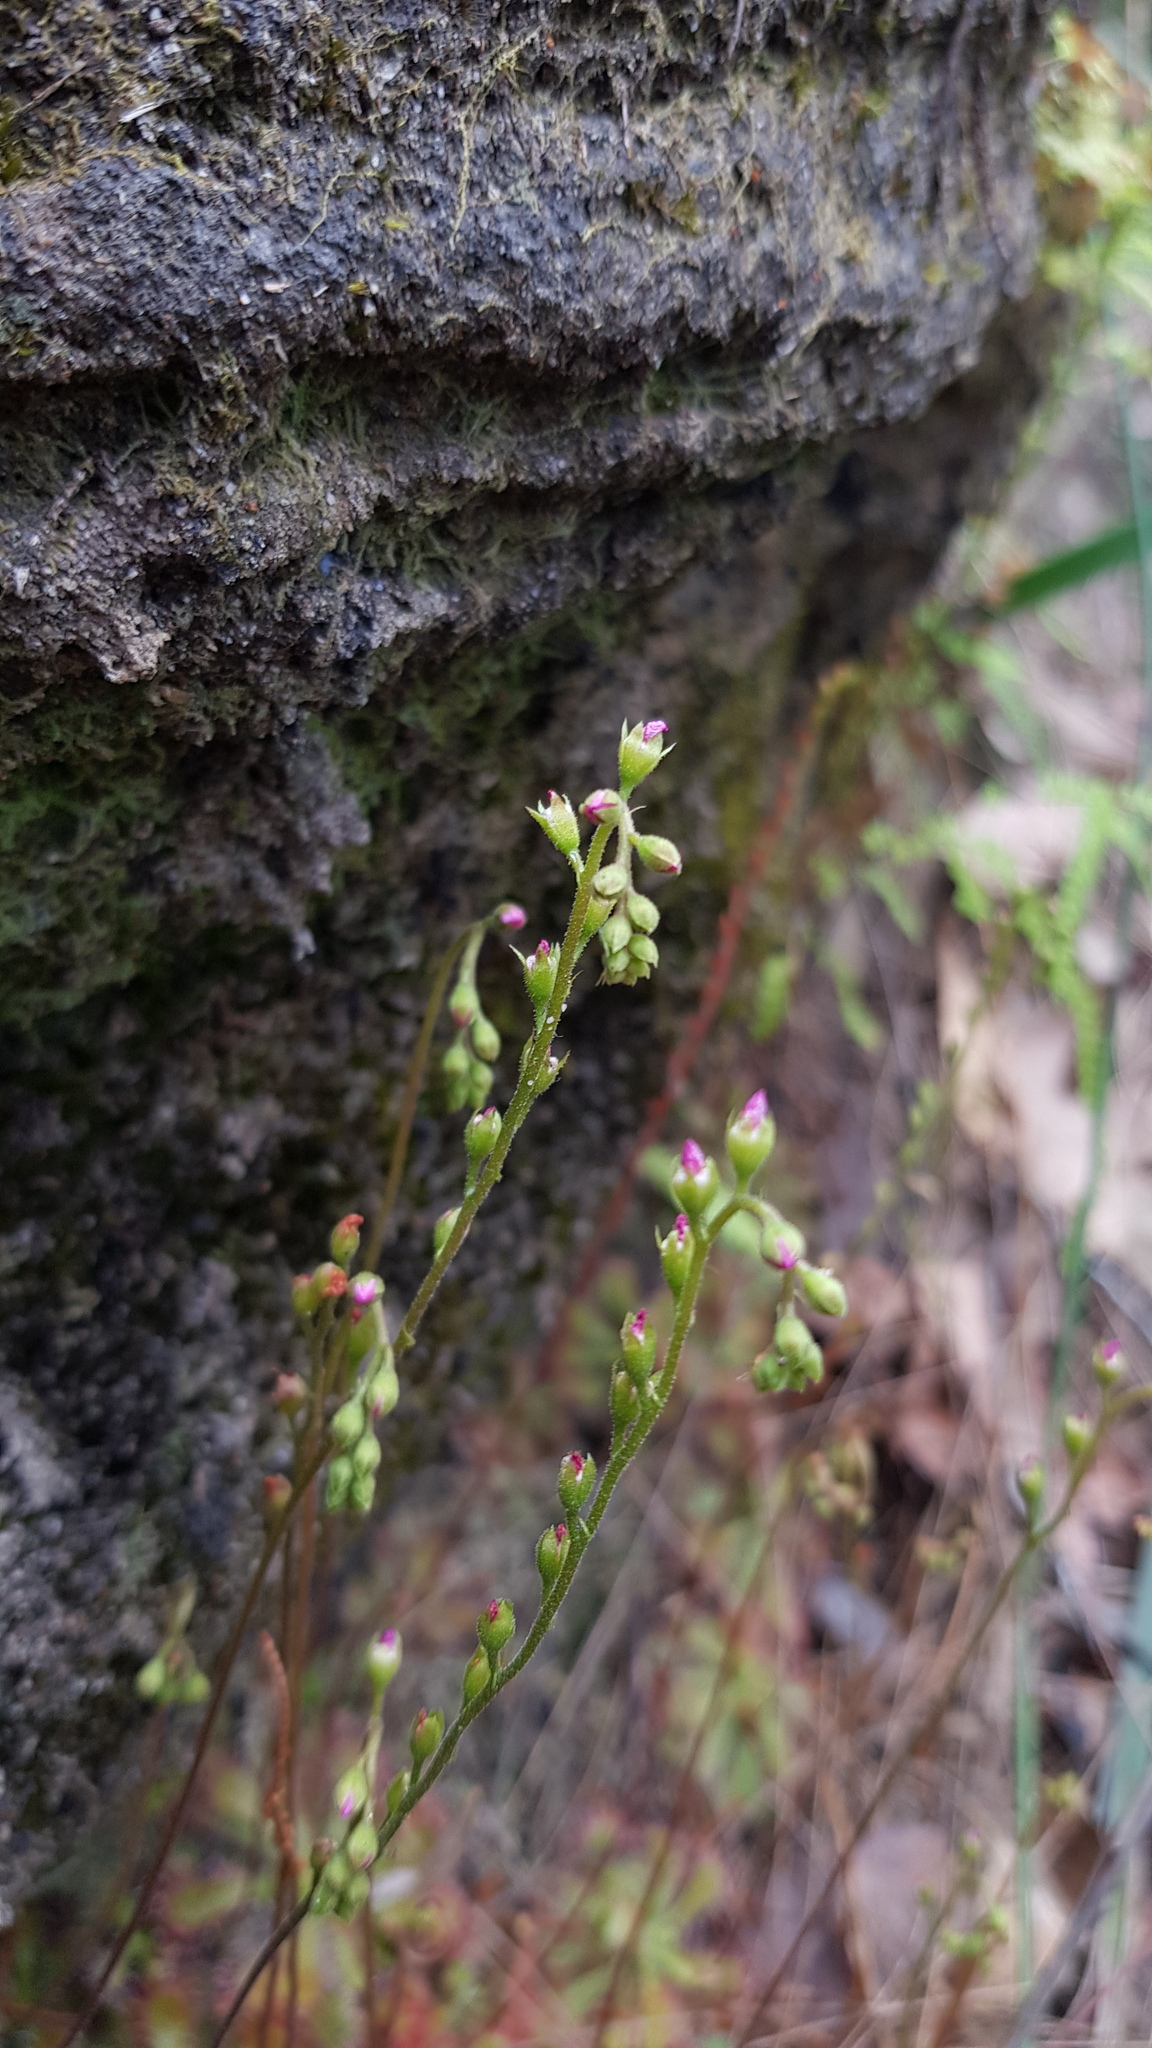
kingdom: Plantae
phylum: Tracheophyta
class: Magnoliopsida
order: Caryophyllales
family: Droseraceae
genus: Drosera
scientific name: Drosera spatulata
